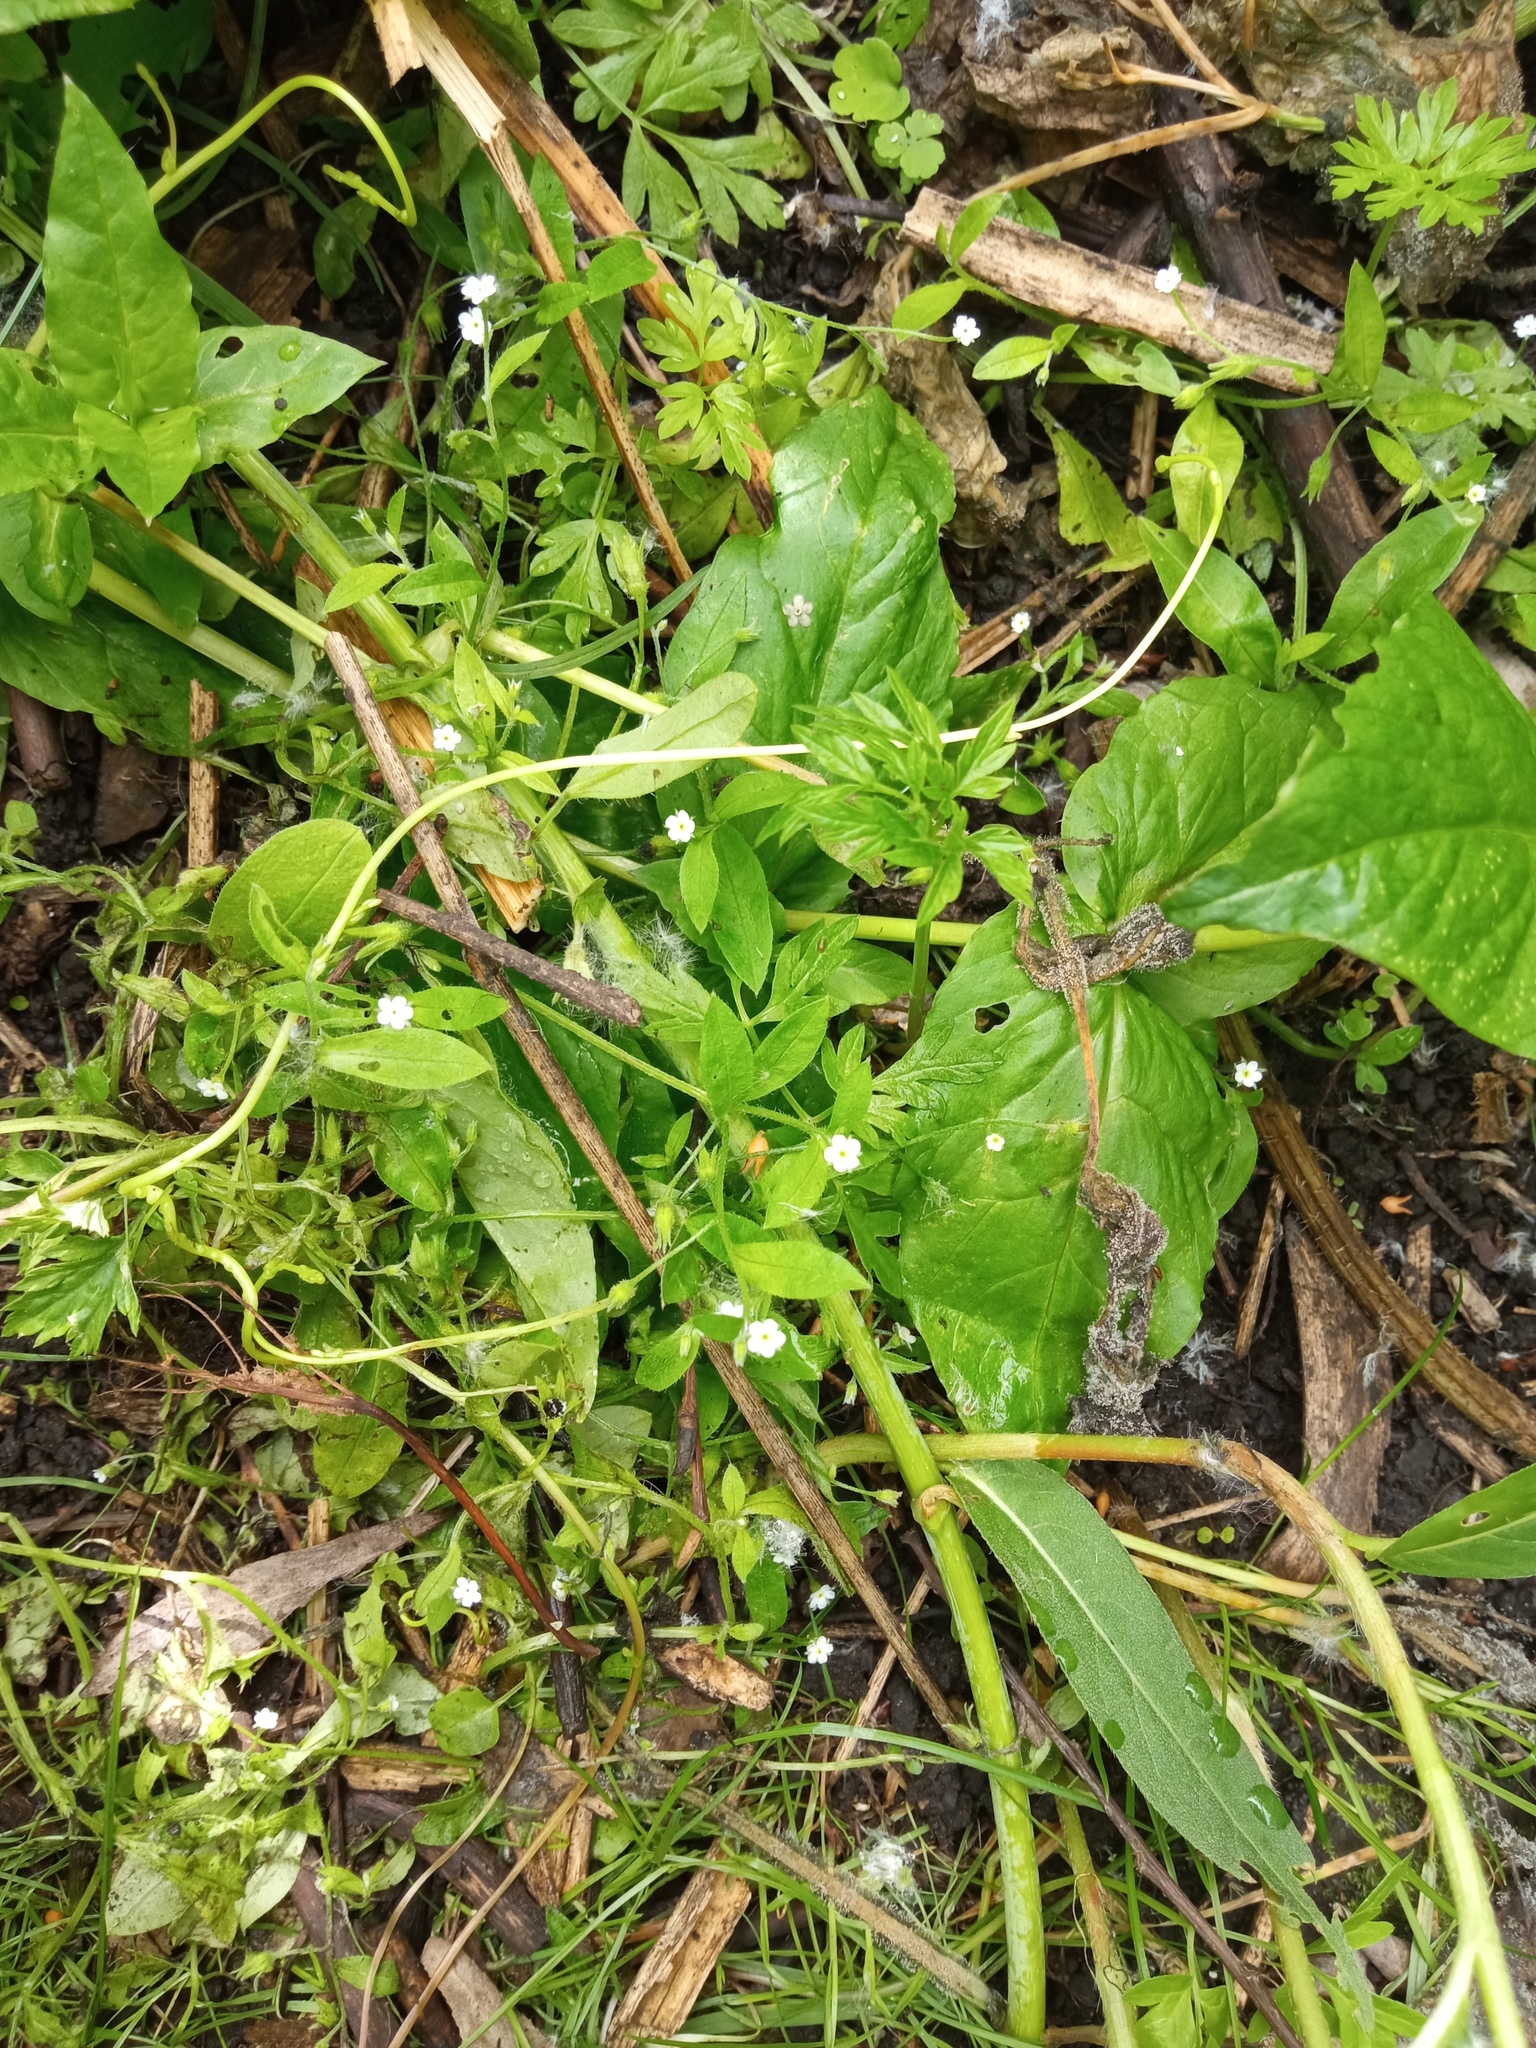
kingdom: Plantae
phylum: Tracheophyta
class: Magnoliopsida
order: Boraginales
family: Boraginaceae
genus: Myosotis
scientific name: Myosotis sparsiflora
